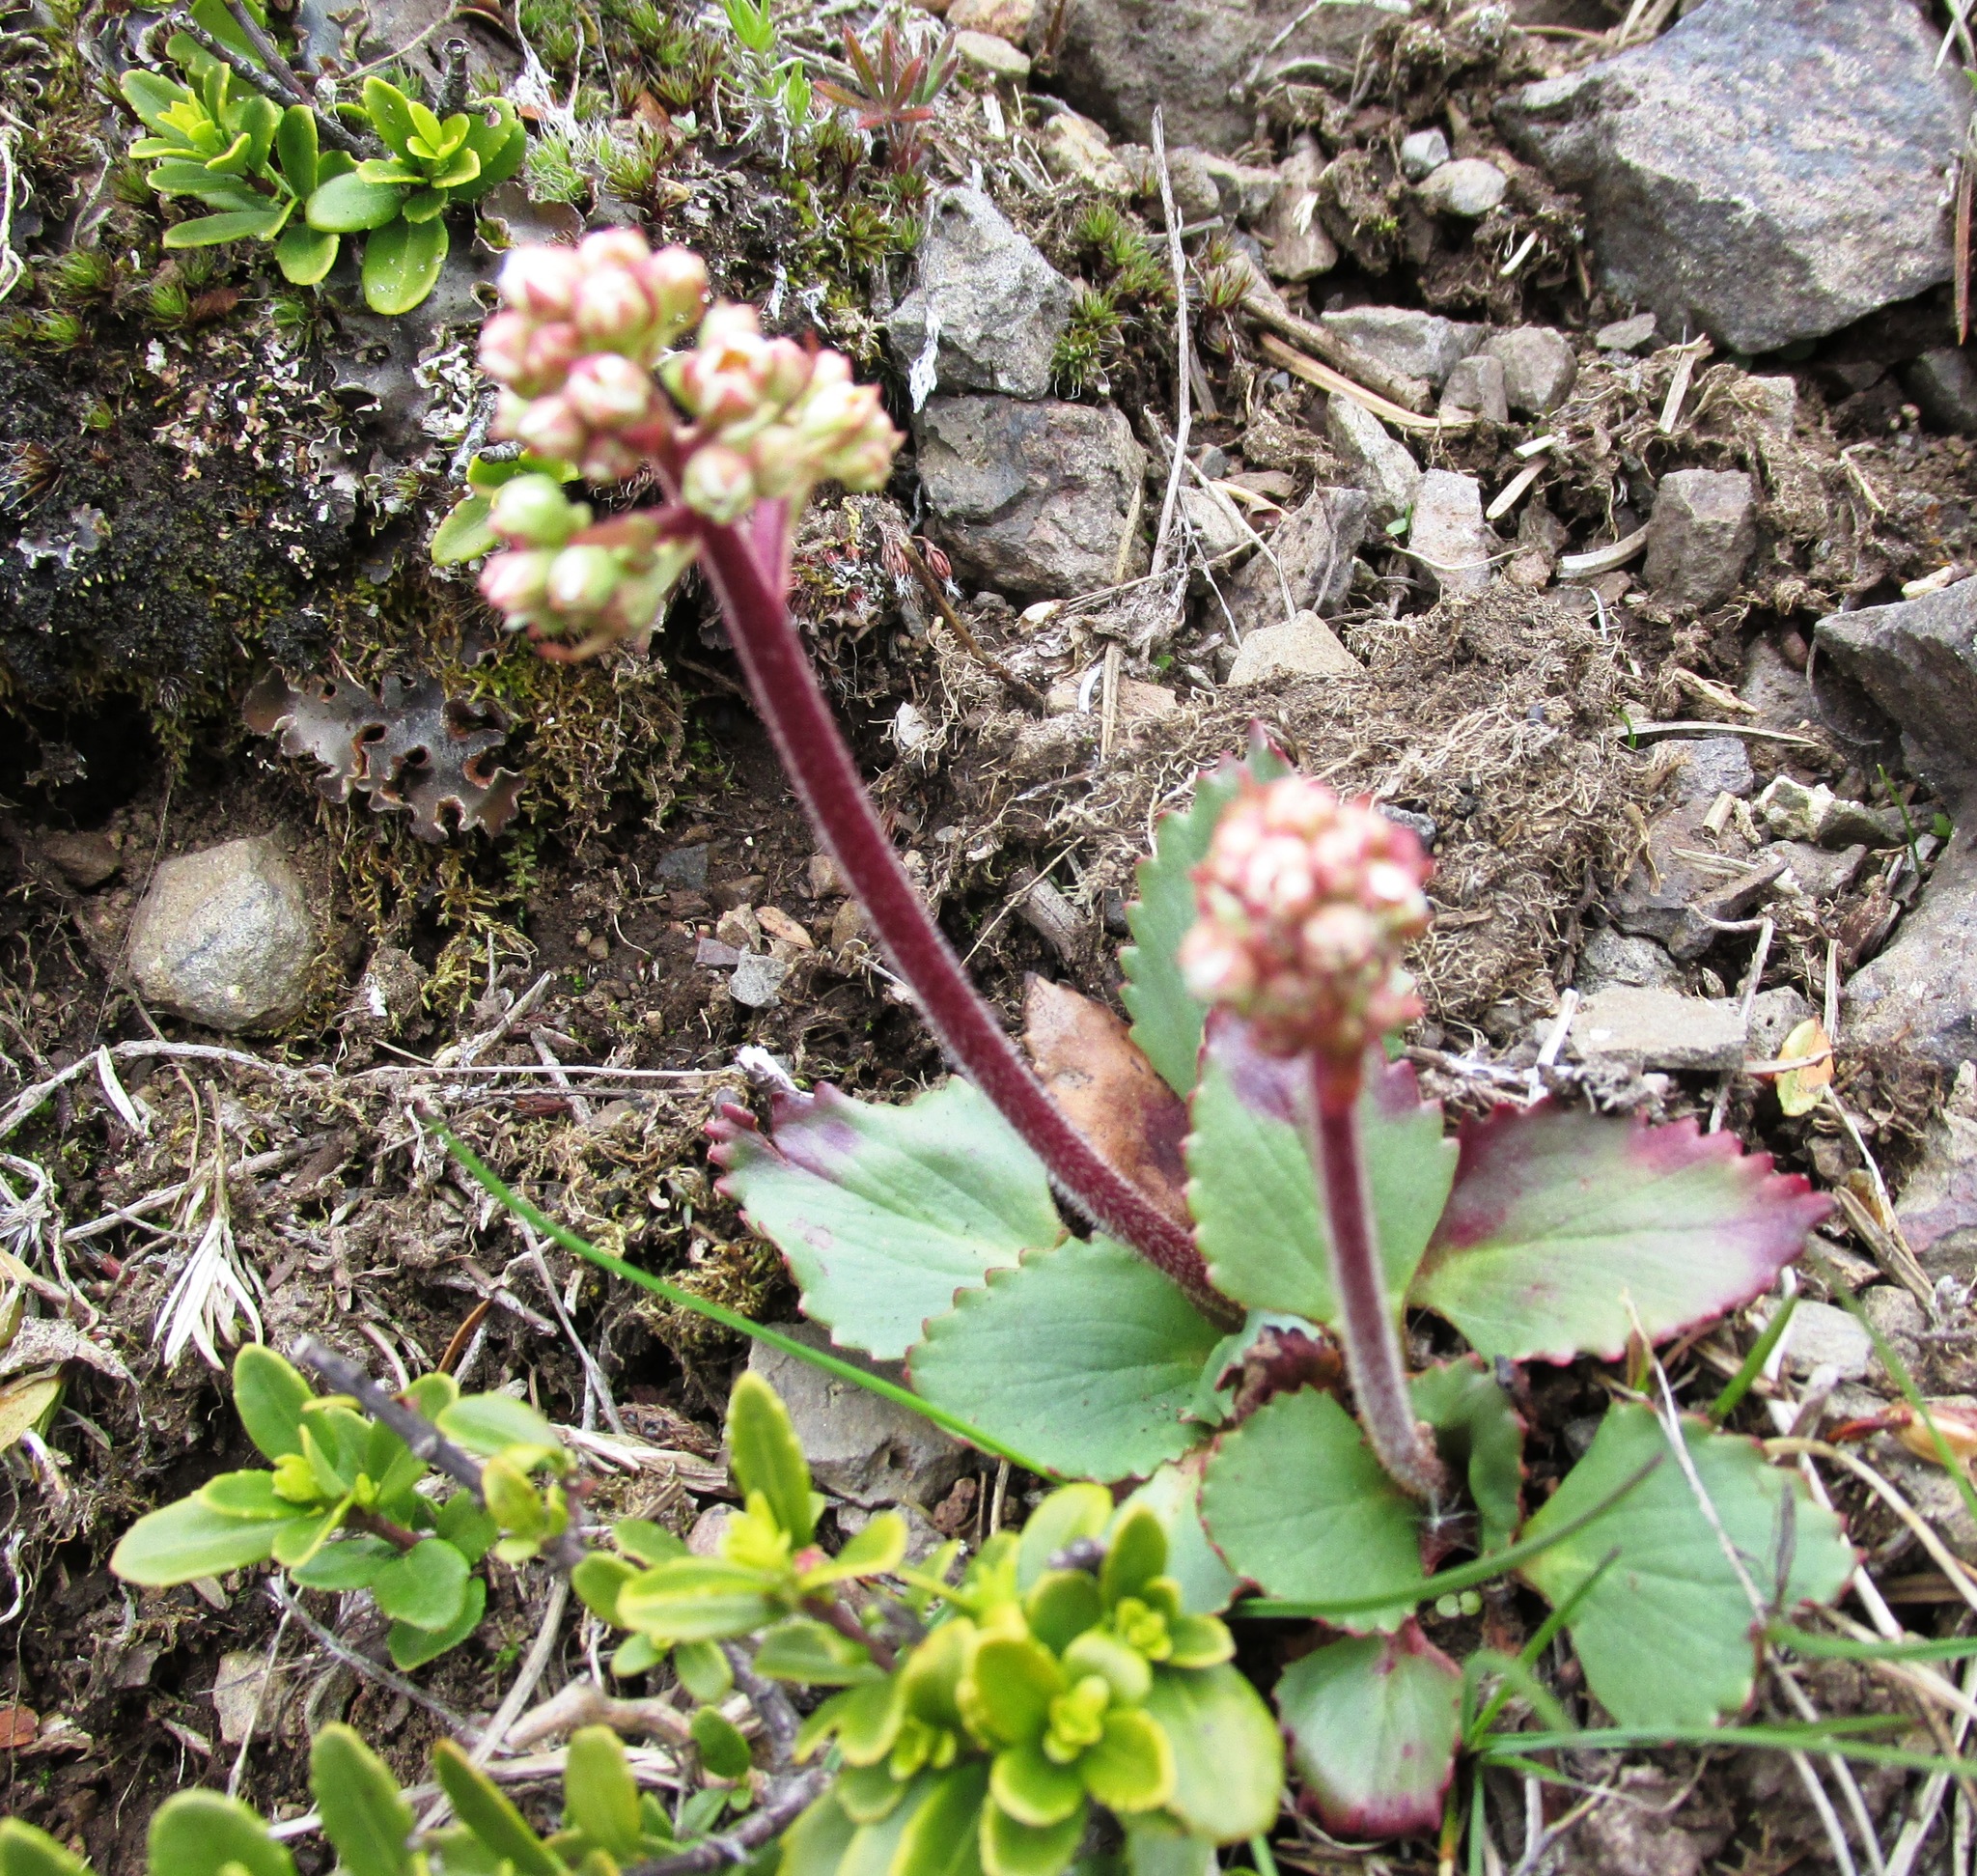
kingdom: Plantae
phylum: Tracheophyta
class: Magnoliopsida
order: Saxifragales
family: Saxifragaceae
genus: Micranthes
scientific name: Micranthes occidentalis
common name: Alberta saxifrage
